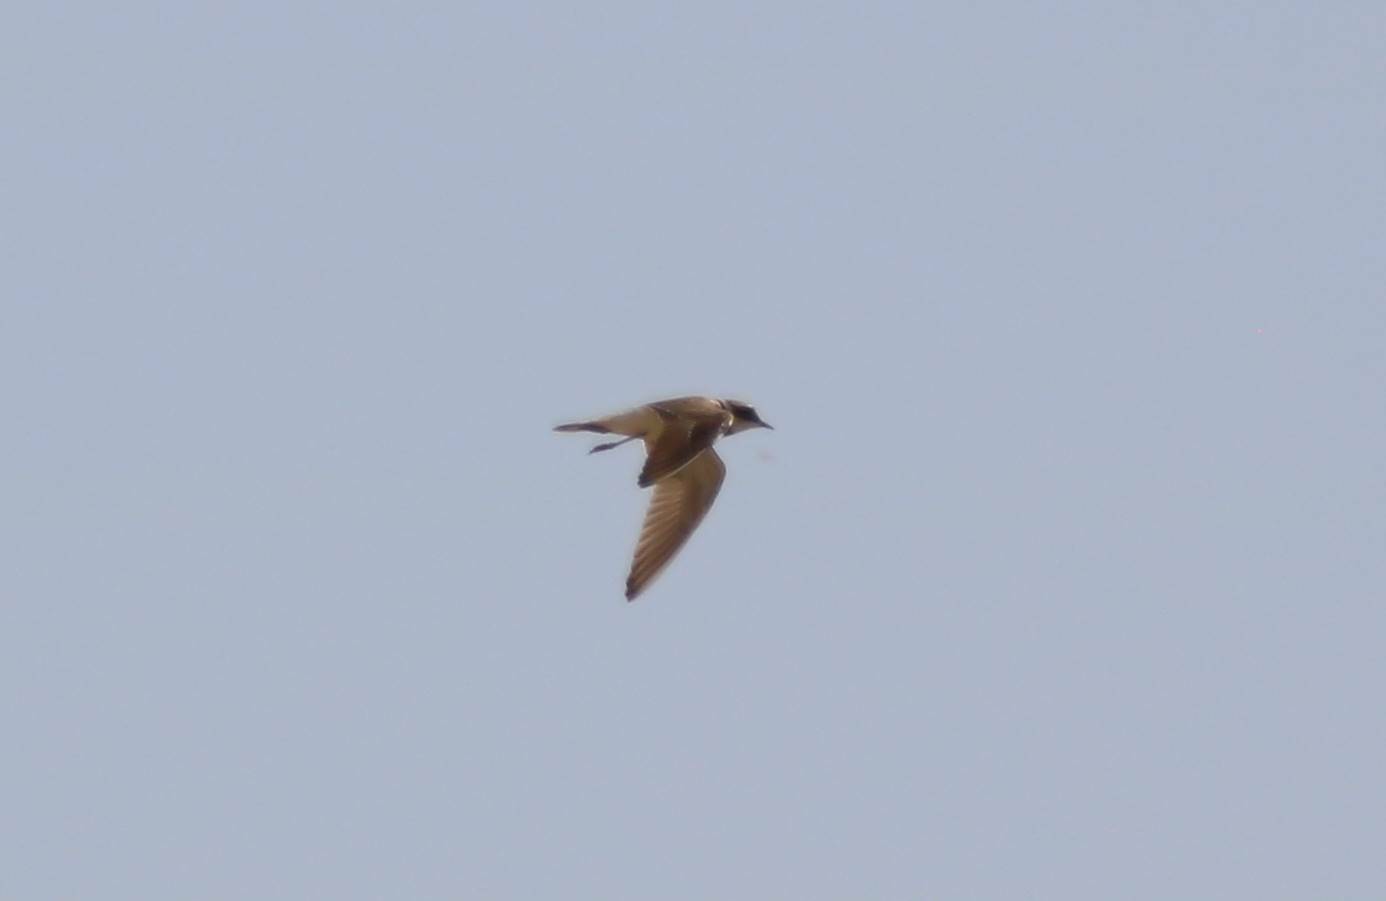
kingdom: Animalia
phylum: Chordata
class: Aves
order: Charadriiformes
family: Charadriidae
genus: Charadrius
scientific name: Charadrius dubius
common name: Little ringed plover
